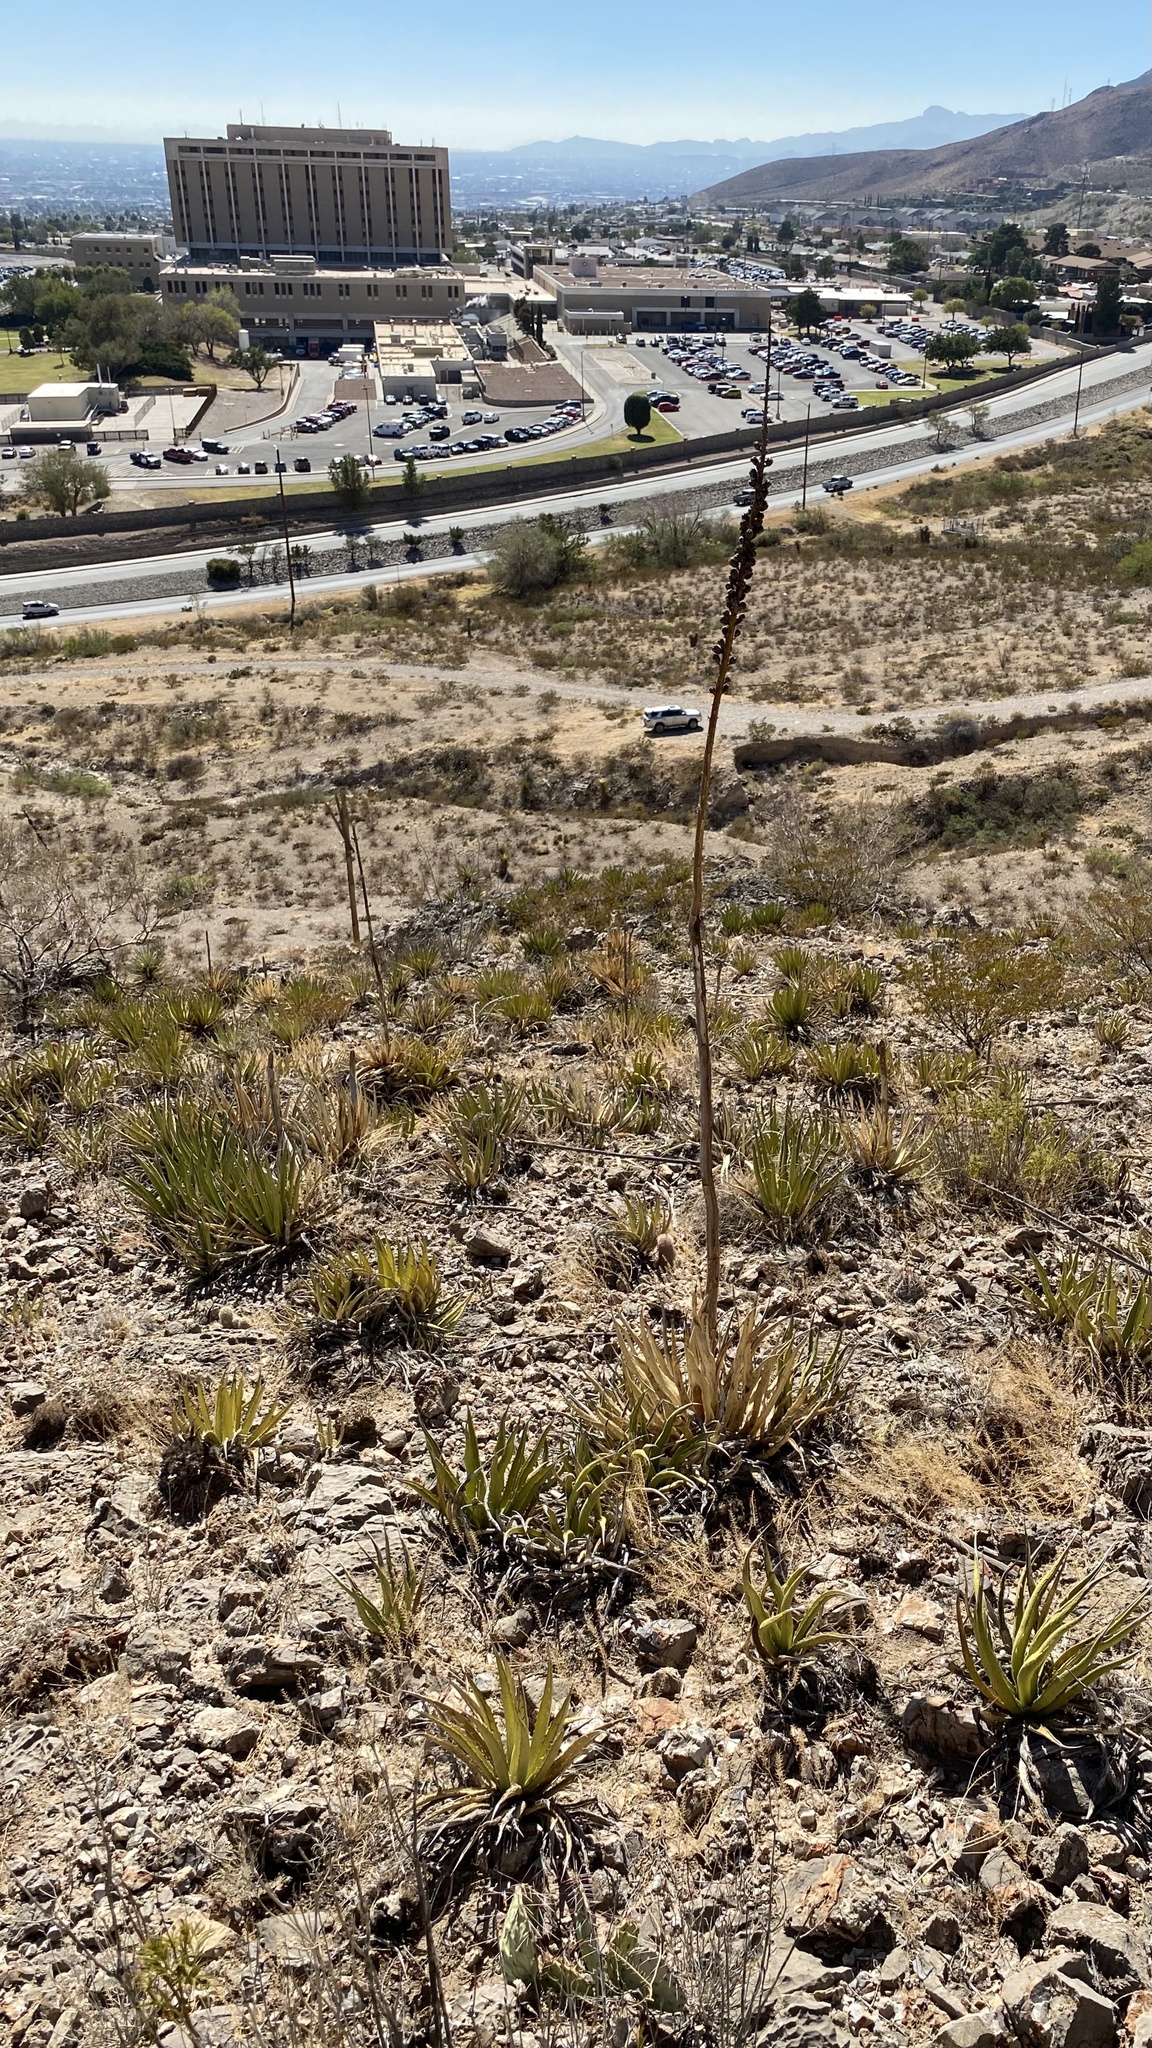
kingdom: Plantae
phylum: Tracheophyta
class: Liliopsida
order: Asparagales
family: Asparagaceae
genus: Agave
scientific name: Agave lechuguilla
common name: Lecheguilla agave
